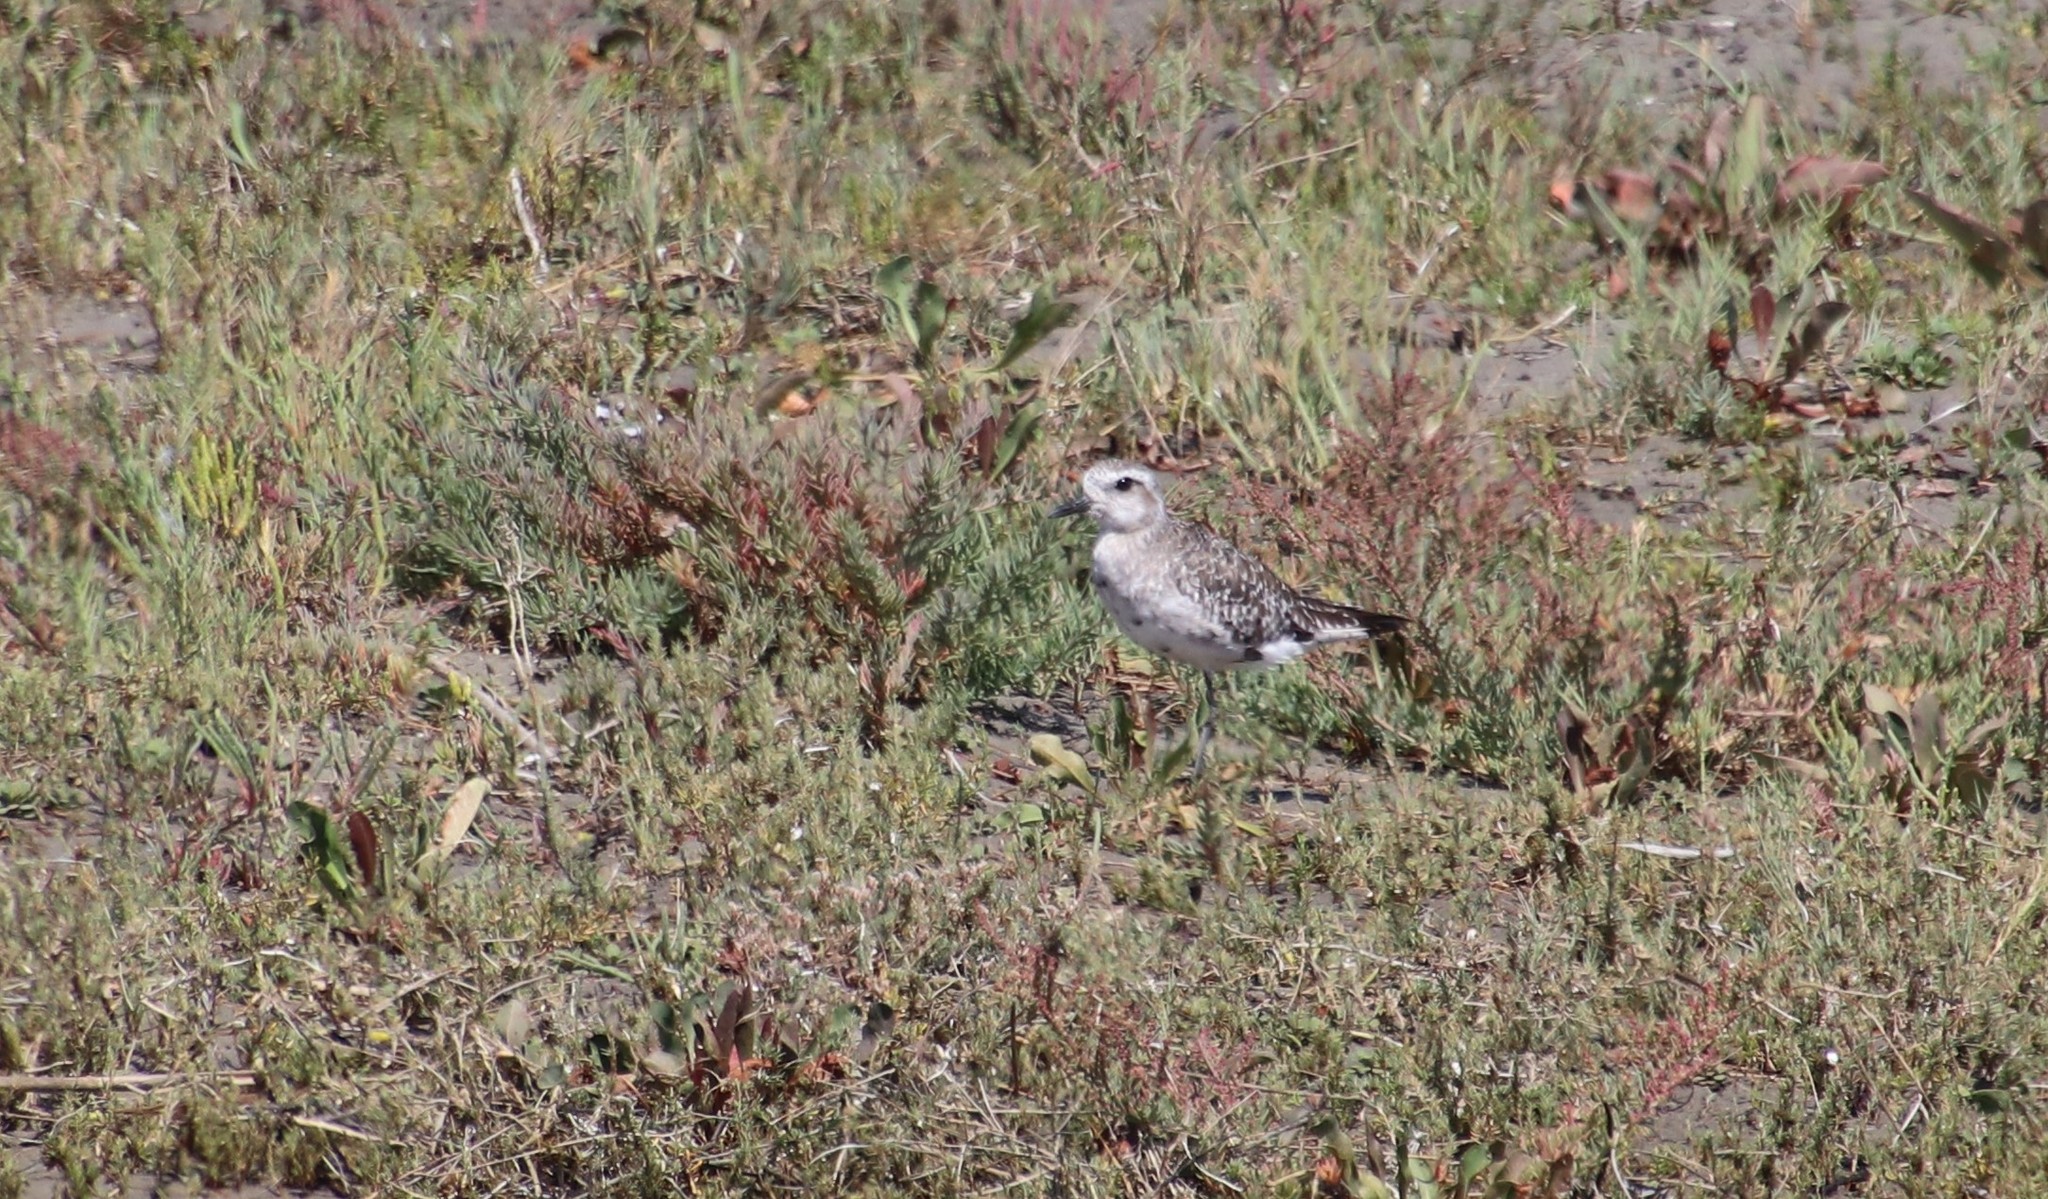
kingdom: Animalia
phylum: Chordata
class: Aves
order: Charadriiformes
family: Charadriidae
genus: Pluvialis
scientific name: Pluvialis squatarola
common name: Grey plover
